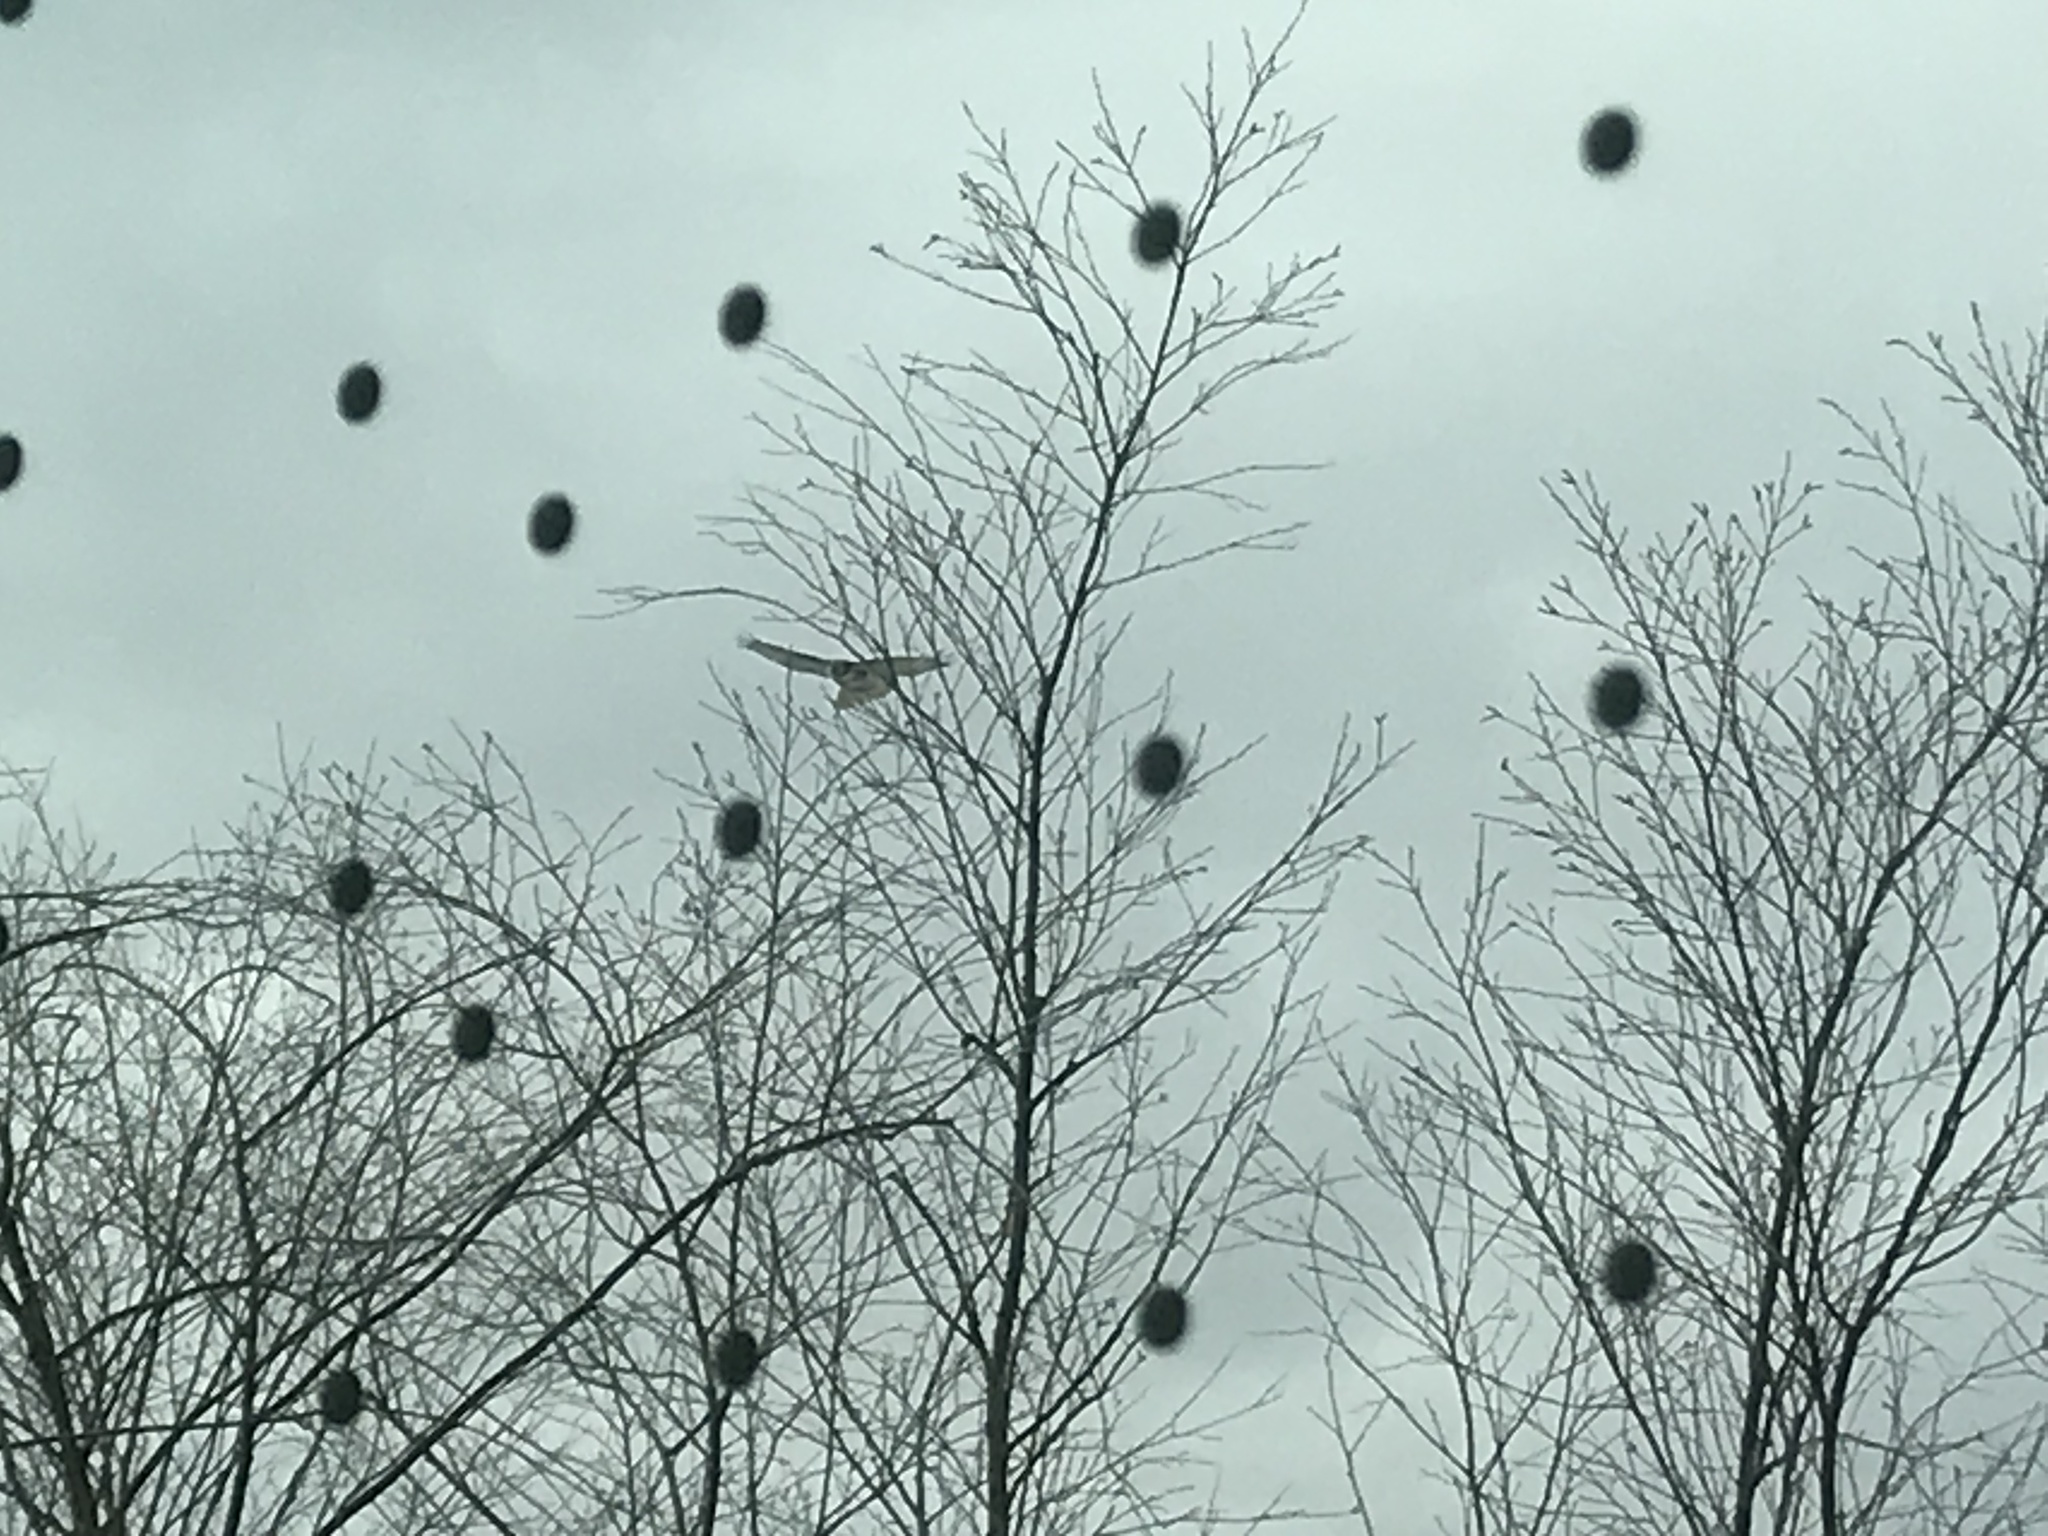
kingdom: Animalia
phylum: Chordata
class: Aves
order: Accipitriformes
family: Accipitridae
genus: Buteo
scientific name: Buteo jamaicensis
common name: Red-tailed hawk
